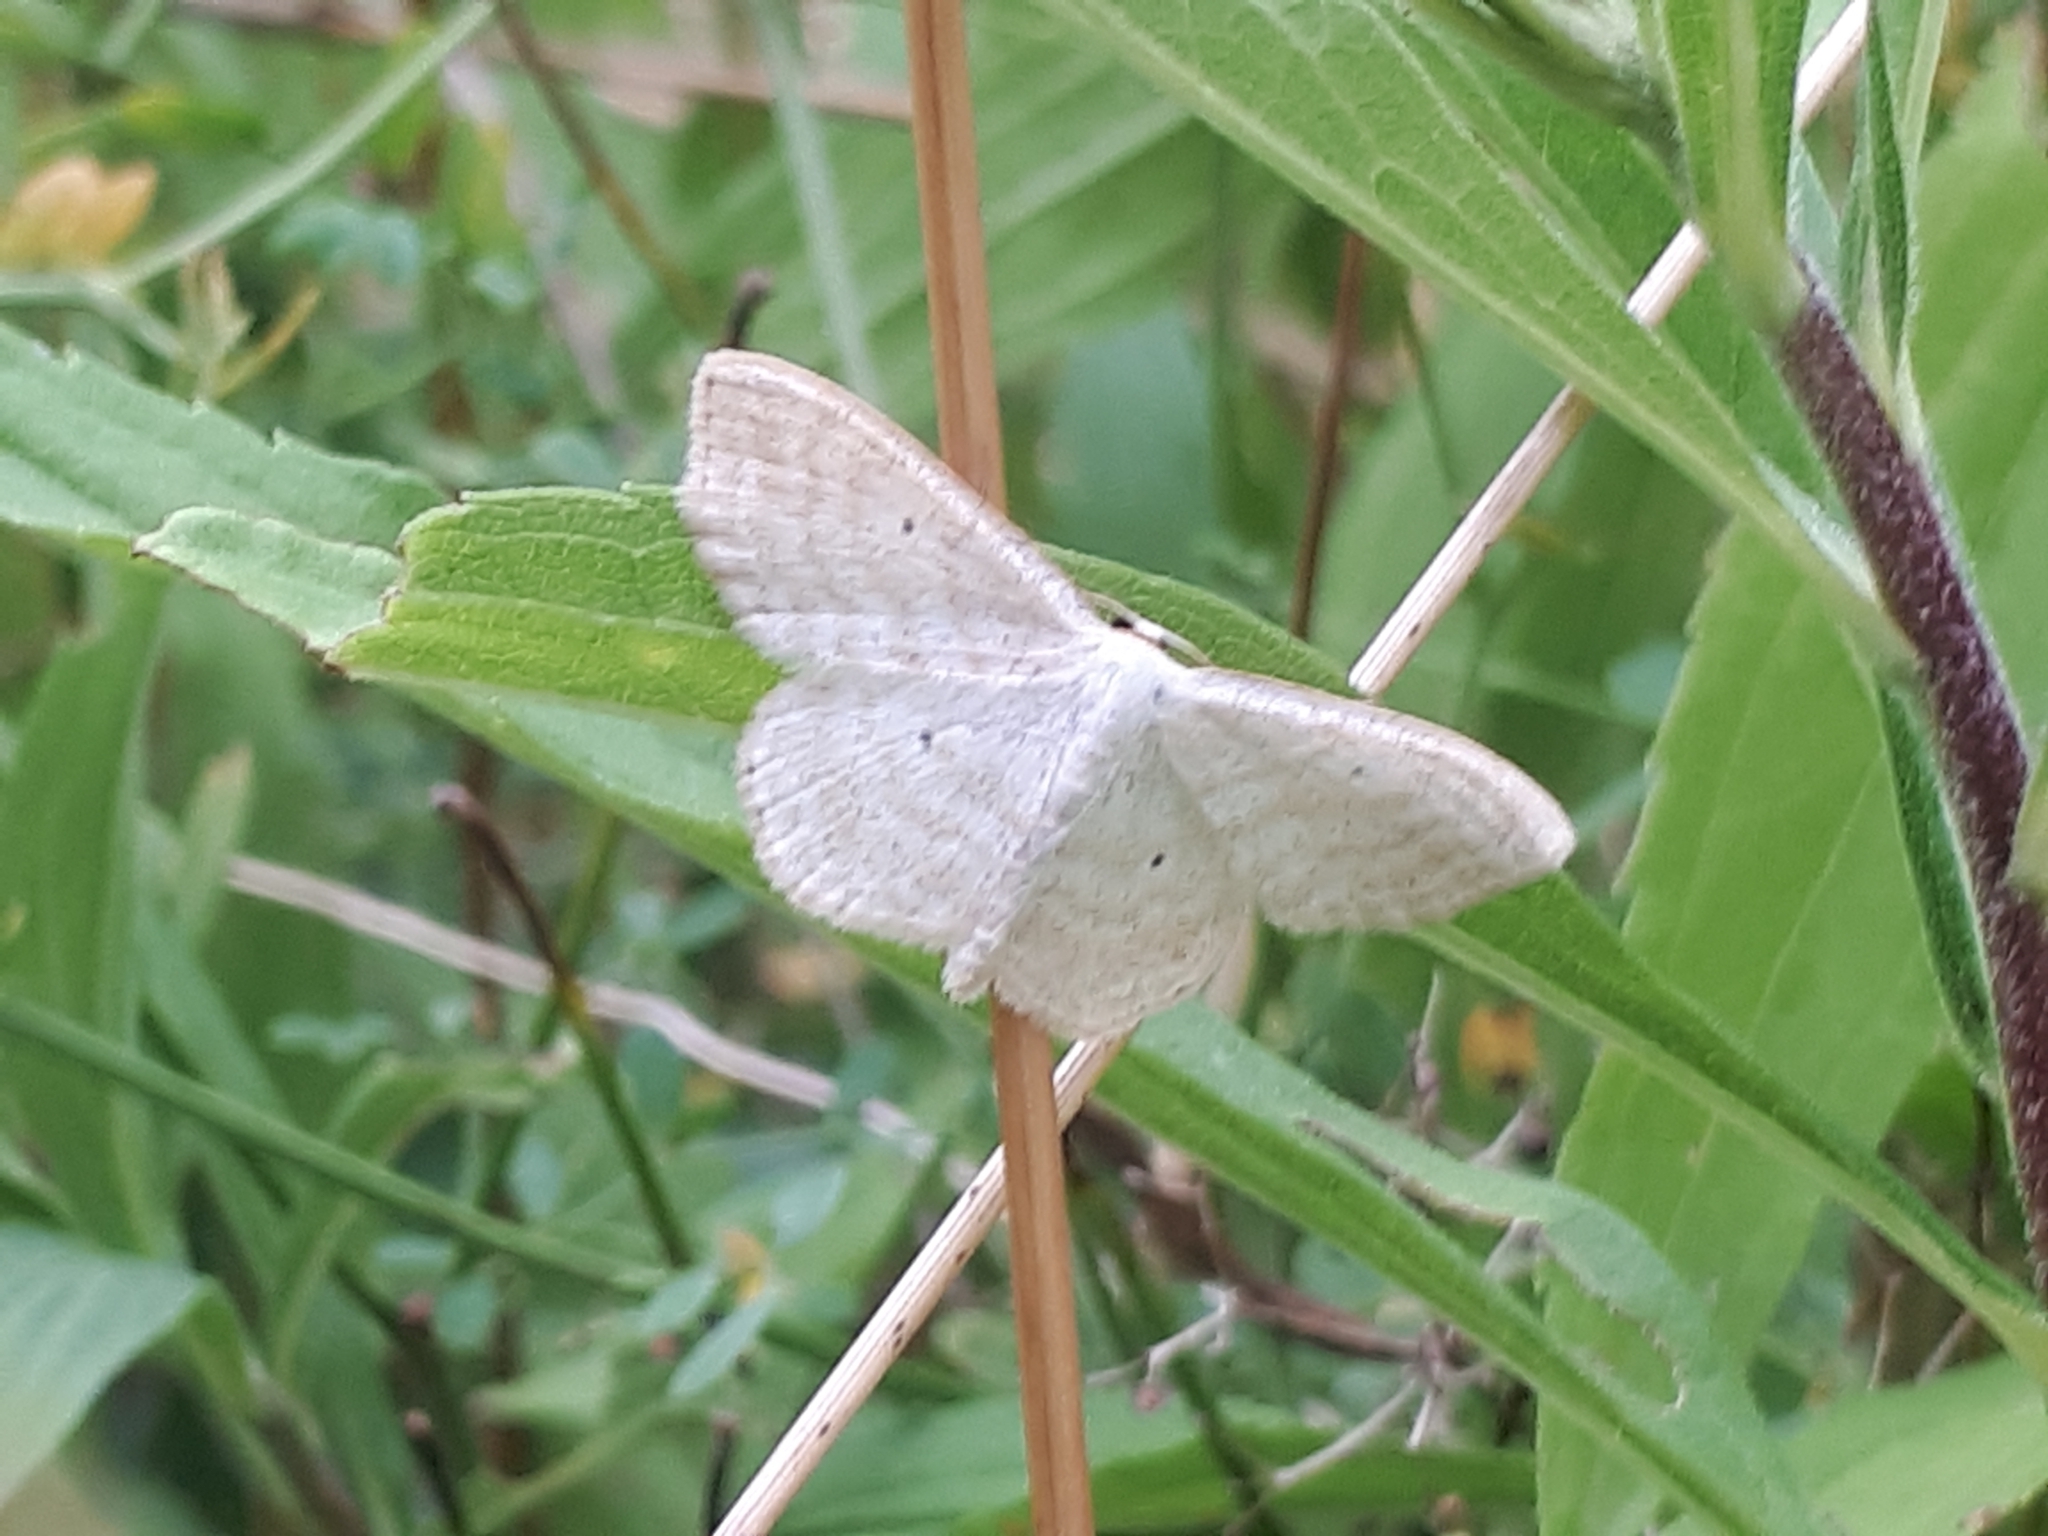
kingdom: Animalia
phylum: Arthropoda
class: Insecta
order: Lepidoptera
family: Geometridae
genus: Scopula
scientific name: Scopula immutata
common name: Lesser cream wave
